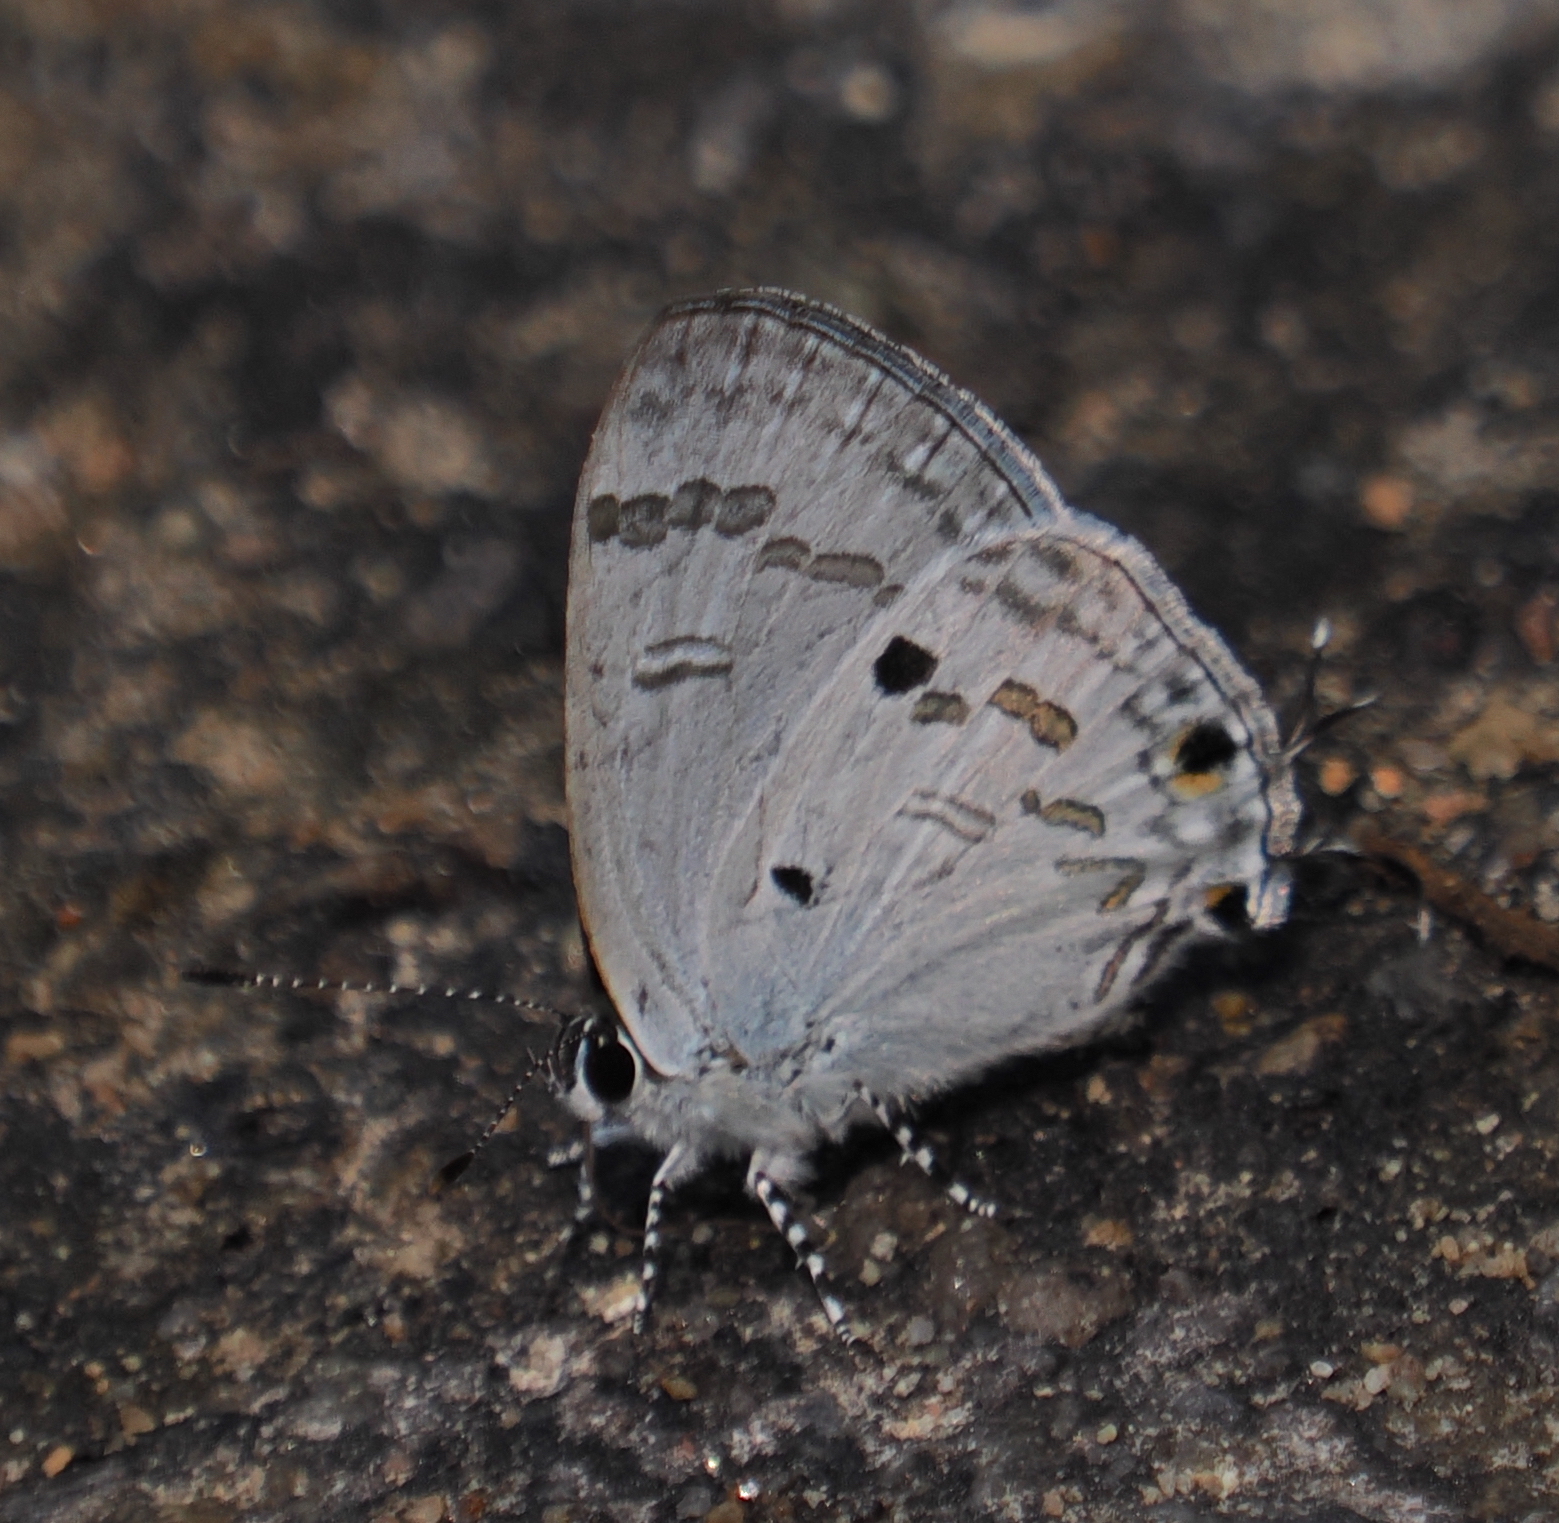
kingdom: Animalia
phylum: Arthropoda
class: Insecta
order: Lepidoptera
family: Lycaenidae
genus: Chliaria
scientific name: Chliaria kina
